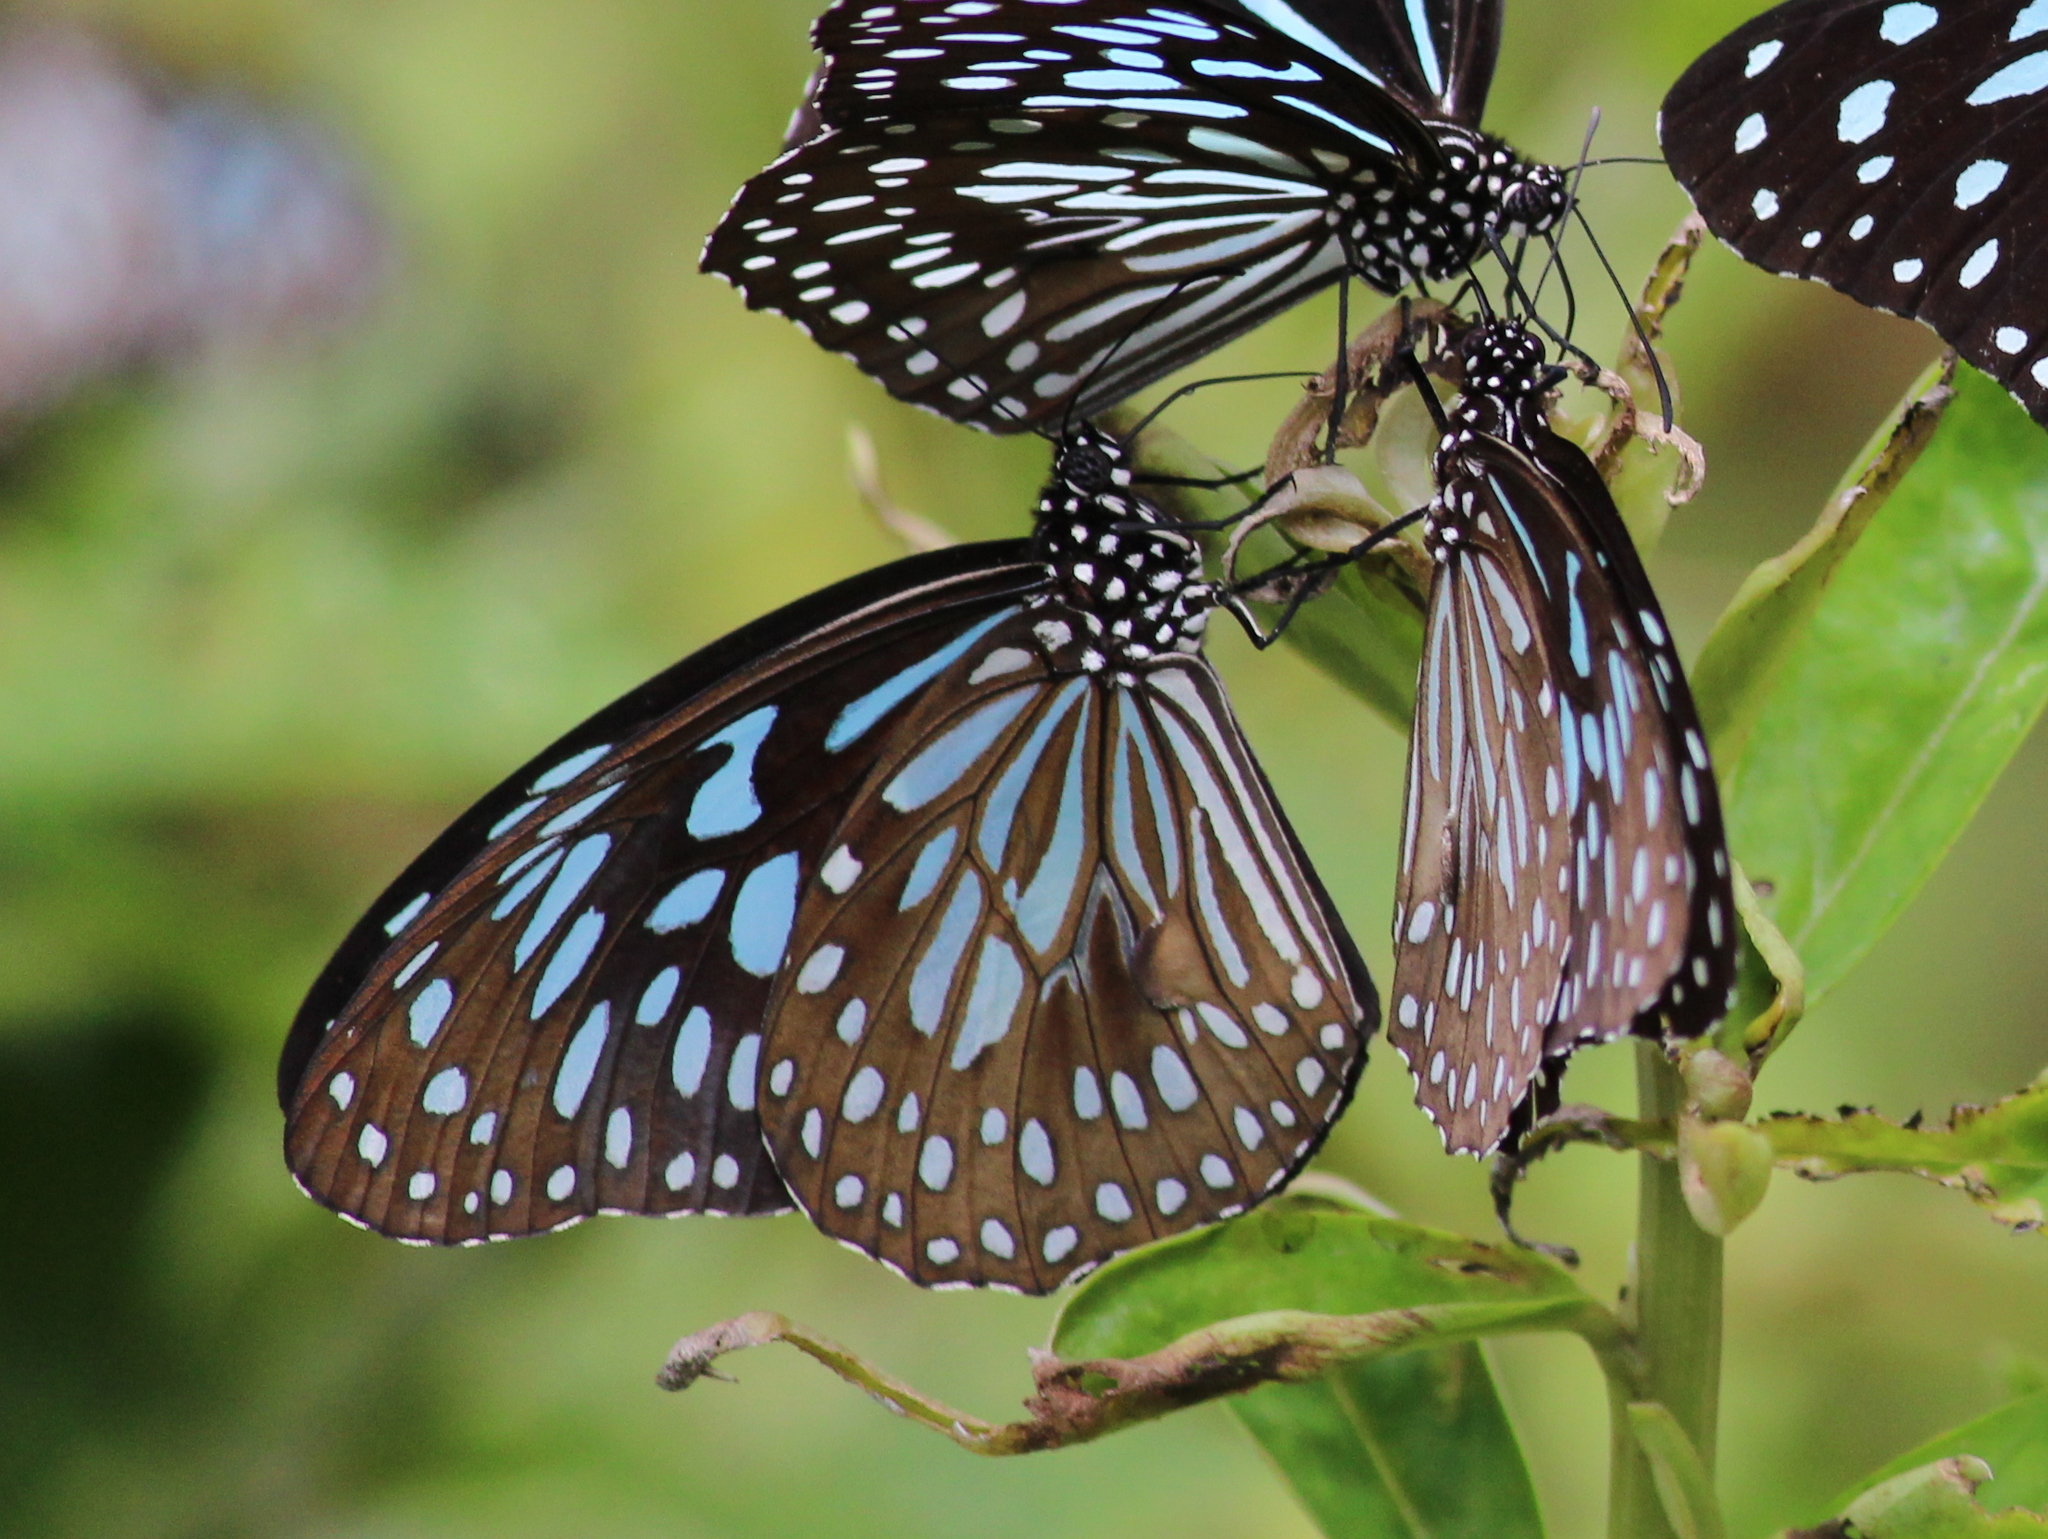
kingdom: Animalia
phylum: Arthropoda
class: Insecta
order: Lepidoptera
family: Nymphalidae
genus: Tirumala
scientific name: Tirumala septentrionis
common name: Dark blue tiger butterfly
